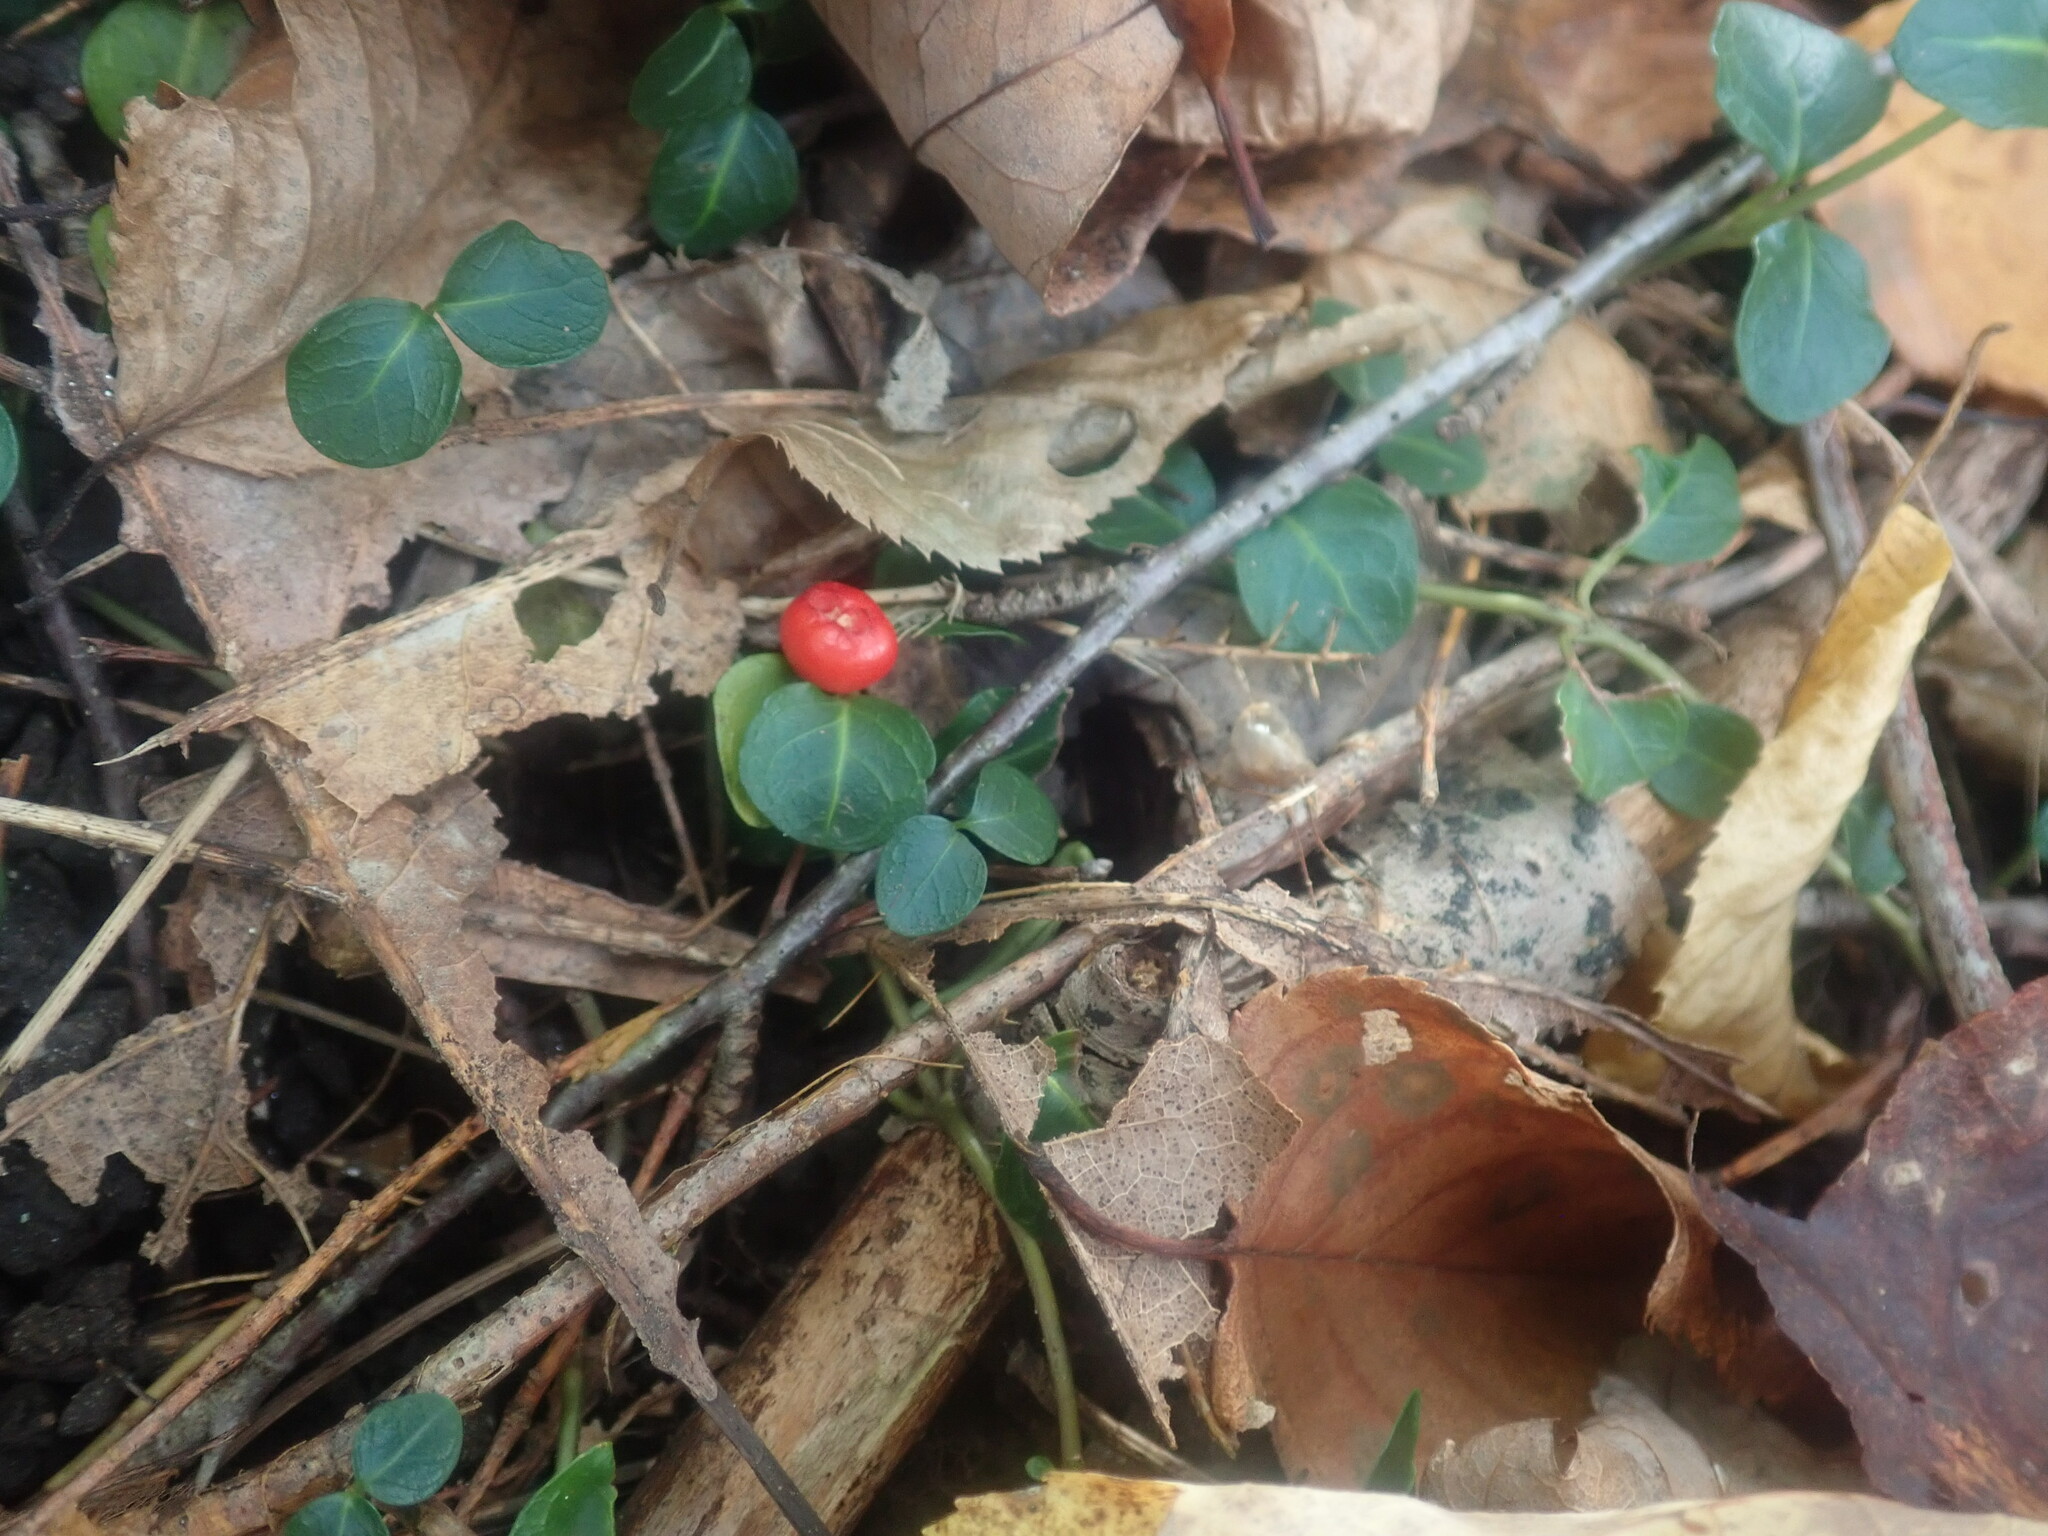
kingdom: Plantae
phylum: Tracheophyta
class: Magnoliopsida
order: Gentianales
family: Rubiaceae
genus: Mitchella
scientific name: Mitchella repens
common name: Partridge-berry
